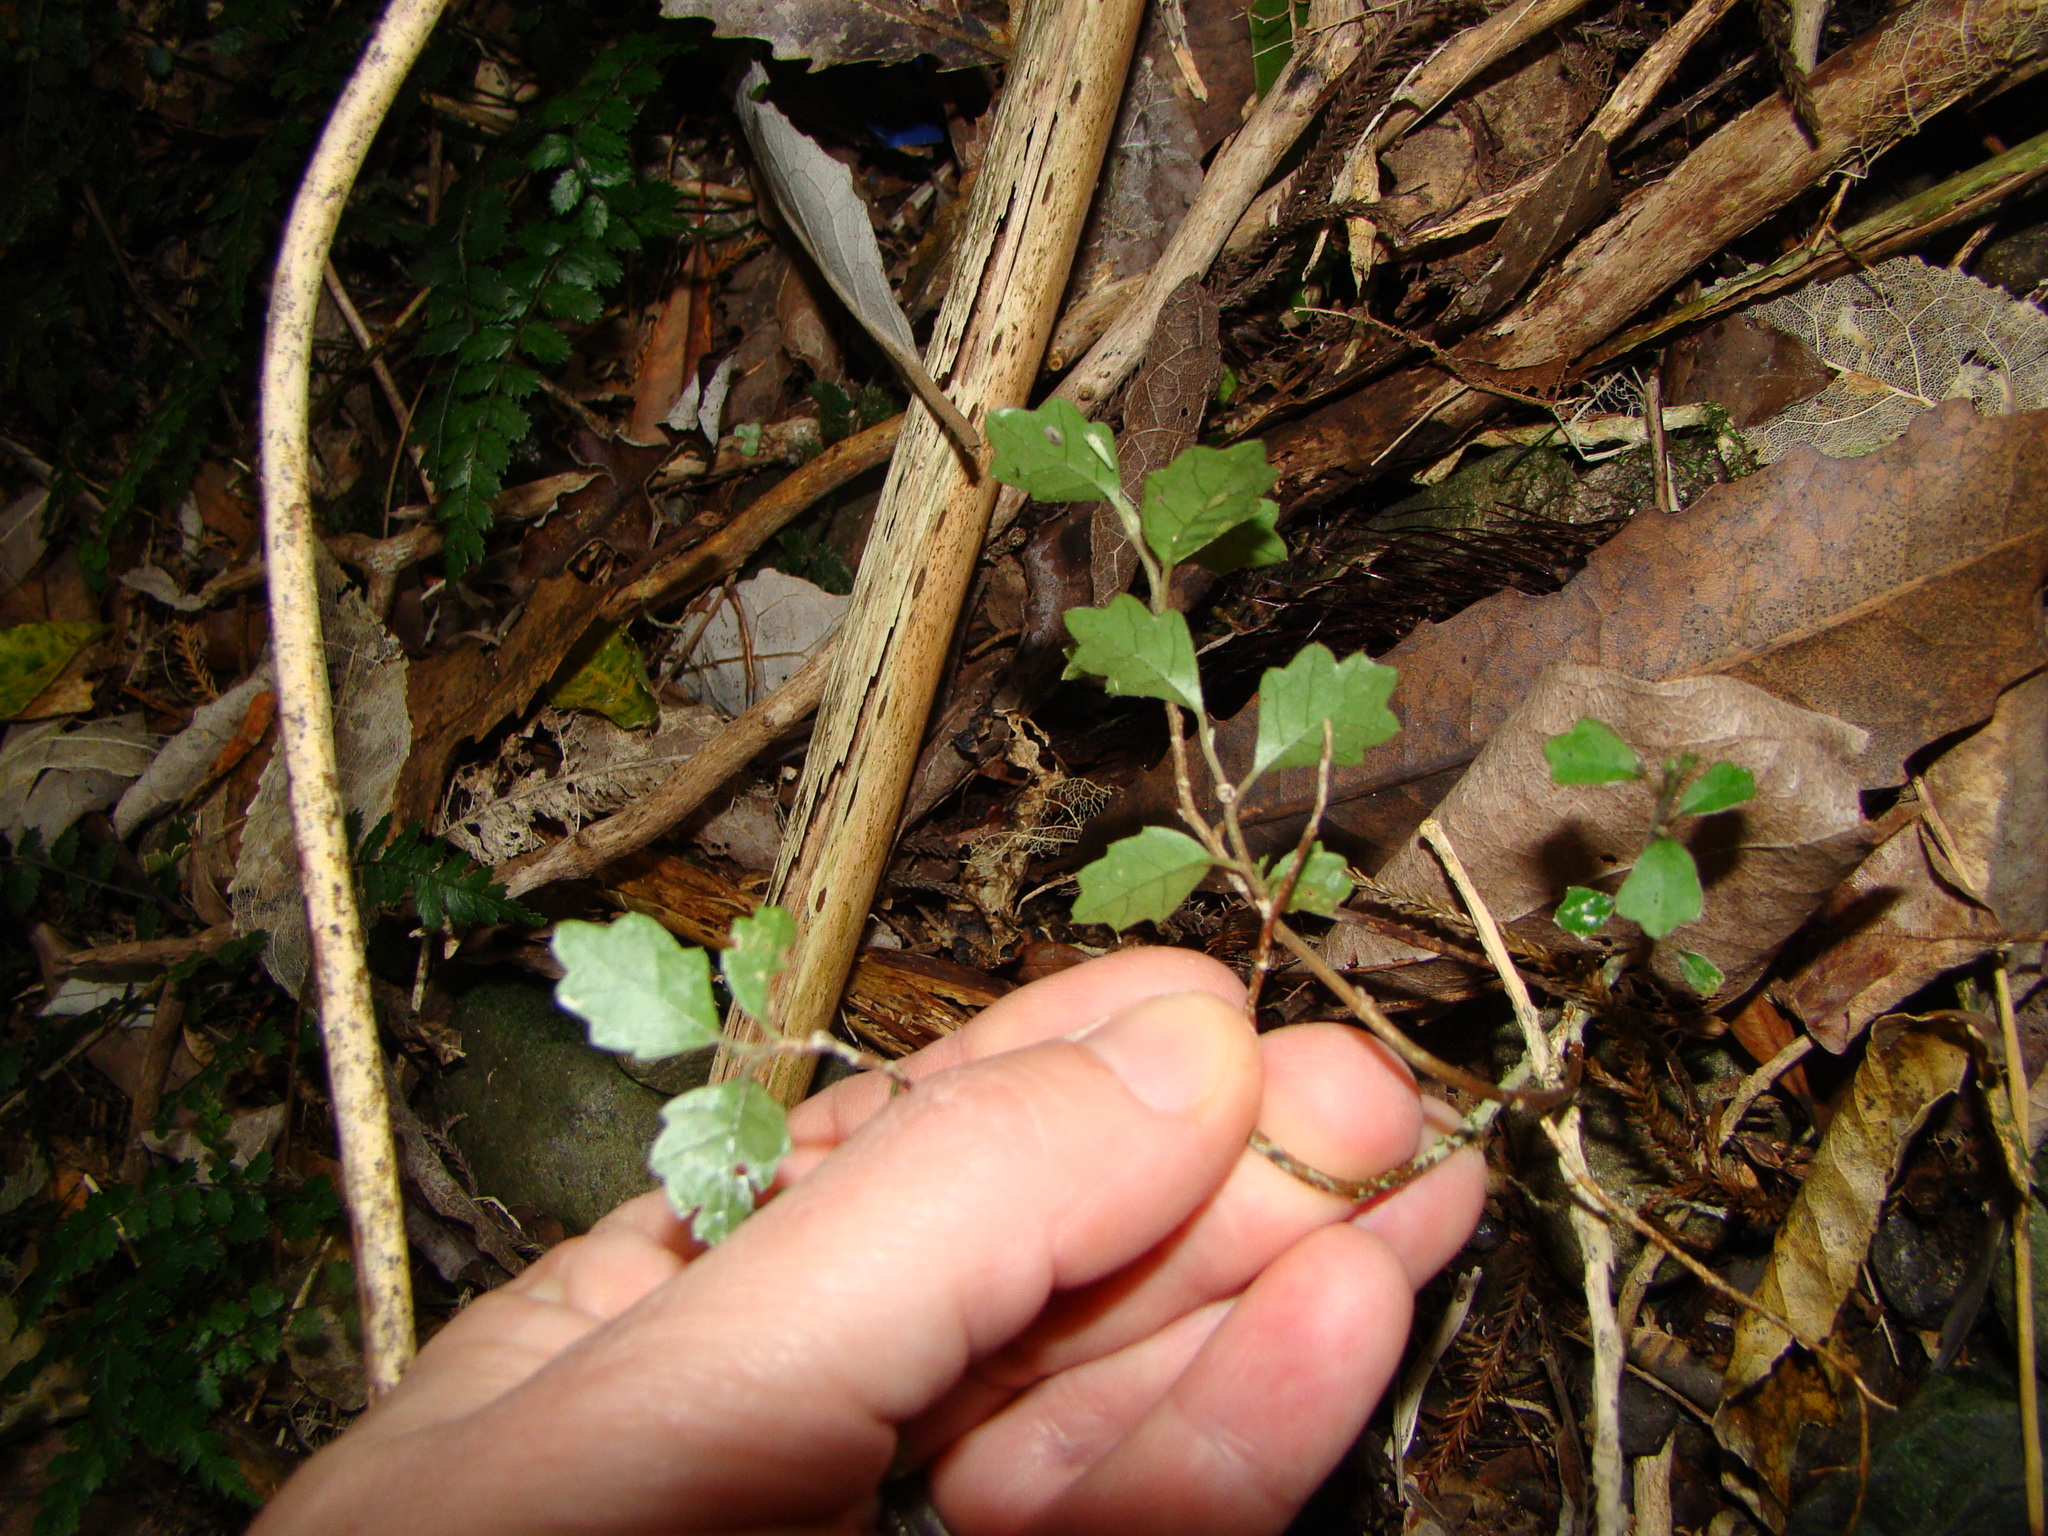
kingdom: Plantae
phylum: Tracheophyta
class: Magnoliopsida
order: Apiales
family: Pennantiaceae
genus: Pennantia
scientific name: Pennantia corymbosa
